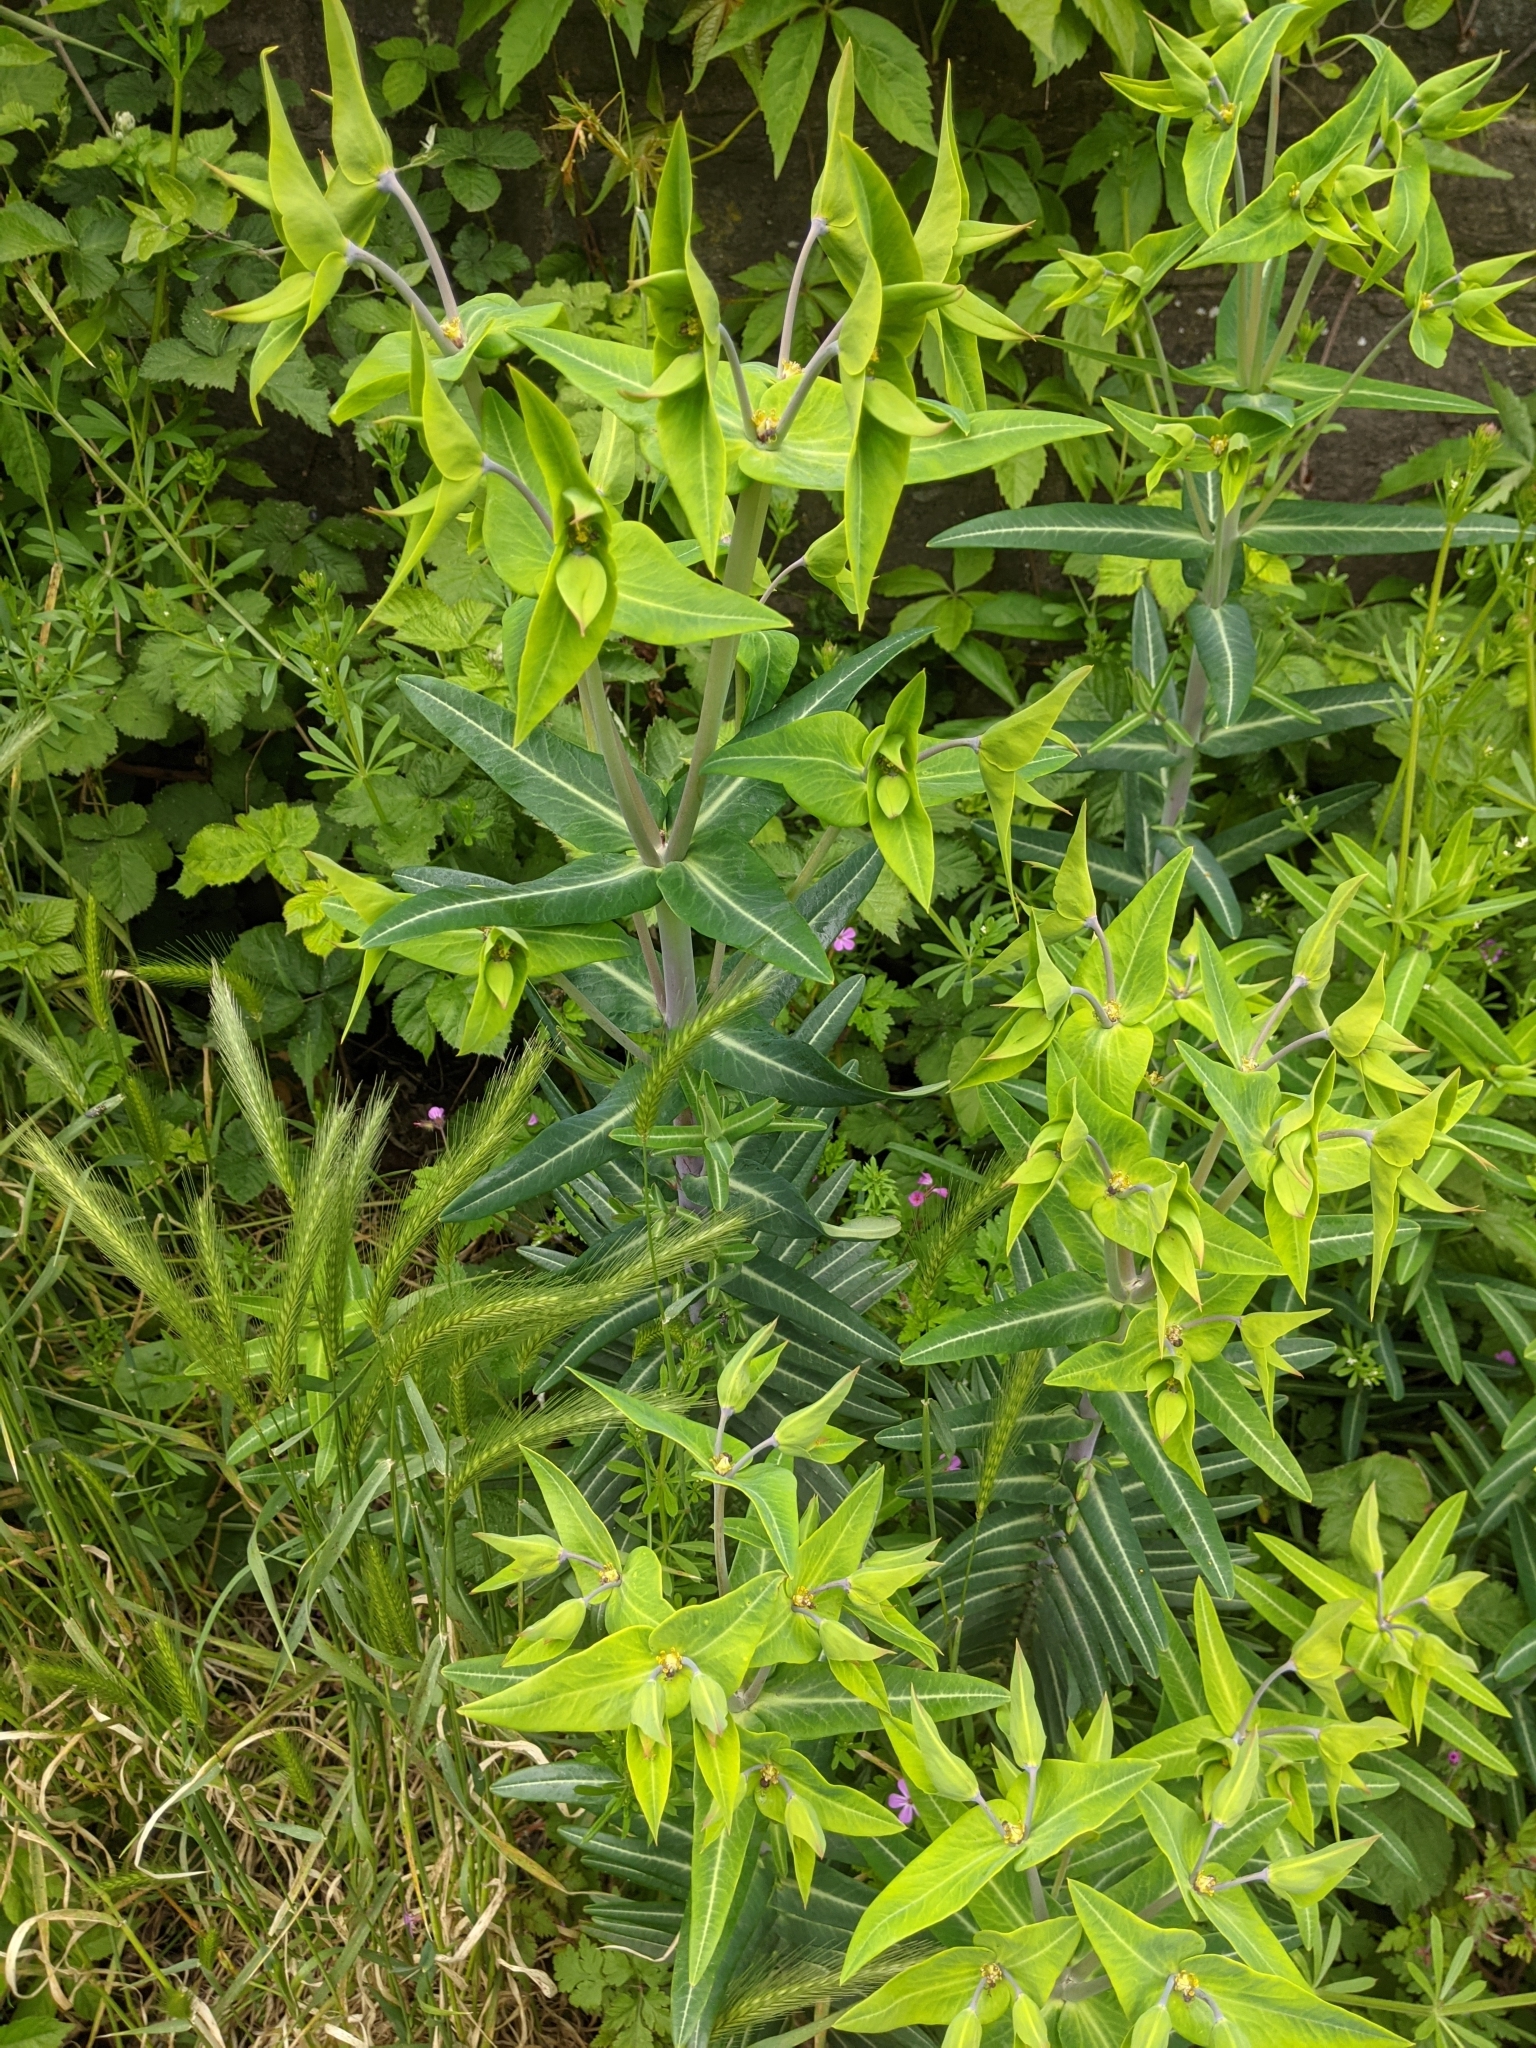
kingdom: Plantae
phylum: Tracheophyta
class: Magnoliopsida
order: Malpighiales
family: Euphorbiaceae
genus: Euphorbia
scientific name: Euphorbia lathyris
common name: Caper spurge
